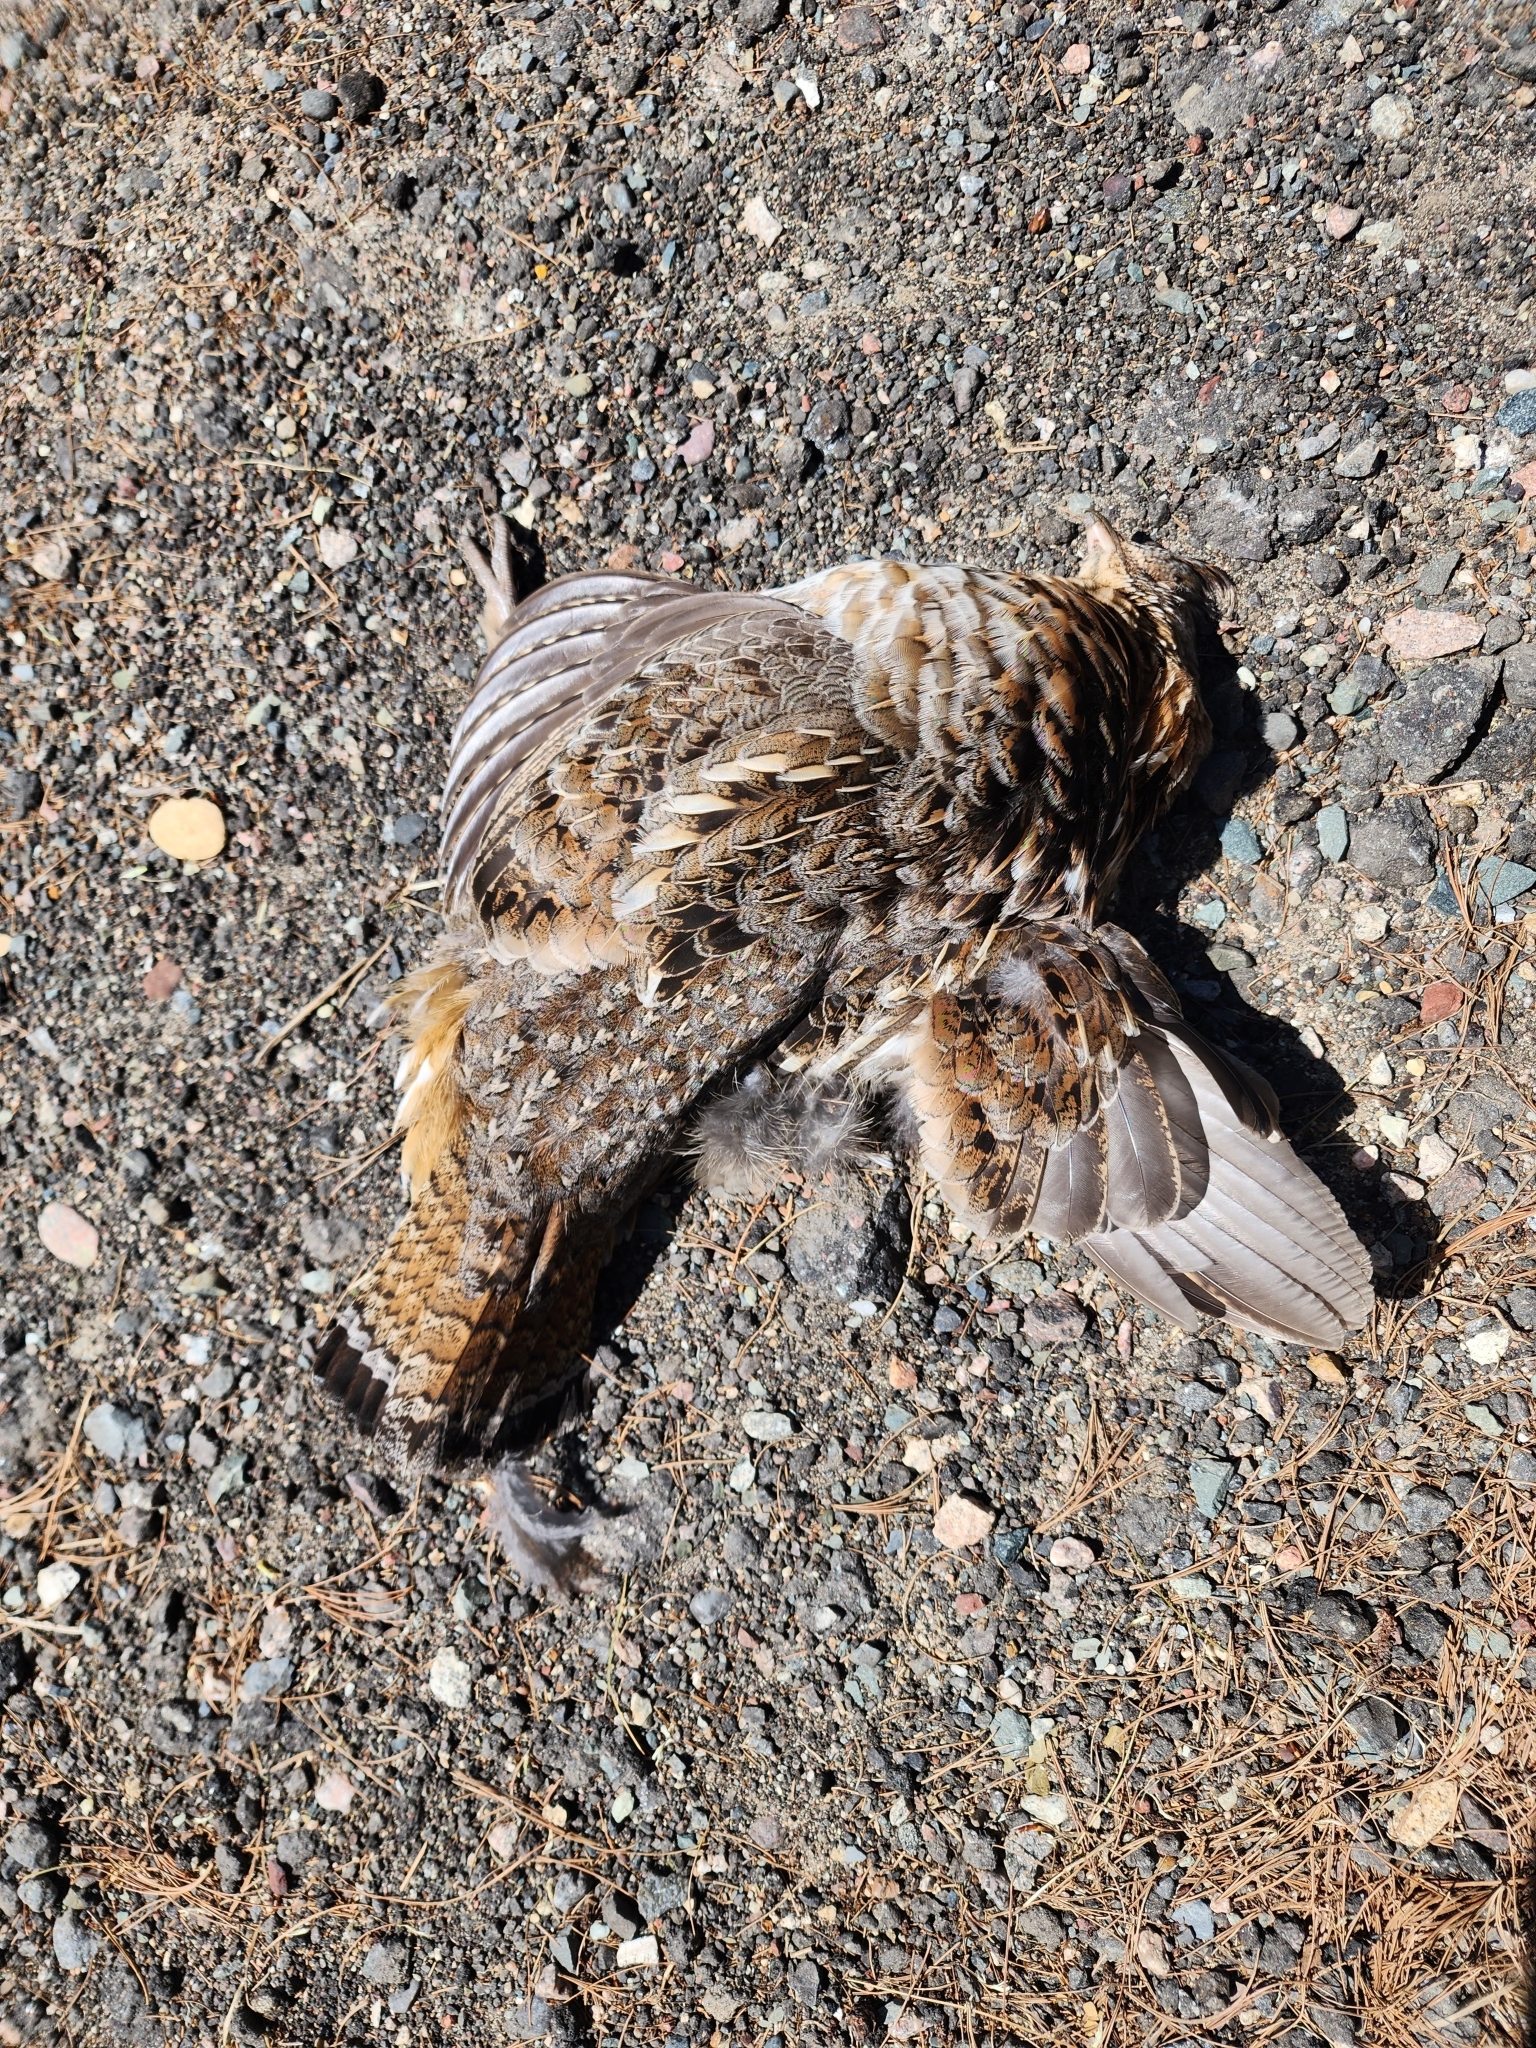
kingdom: Animalia
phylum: Chordata
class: Aves
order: Galliformes
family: Phasianidae
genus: Bonasa
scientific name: Bonasa umbellus
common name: Ruffed grouse
